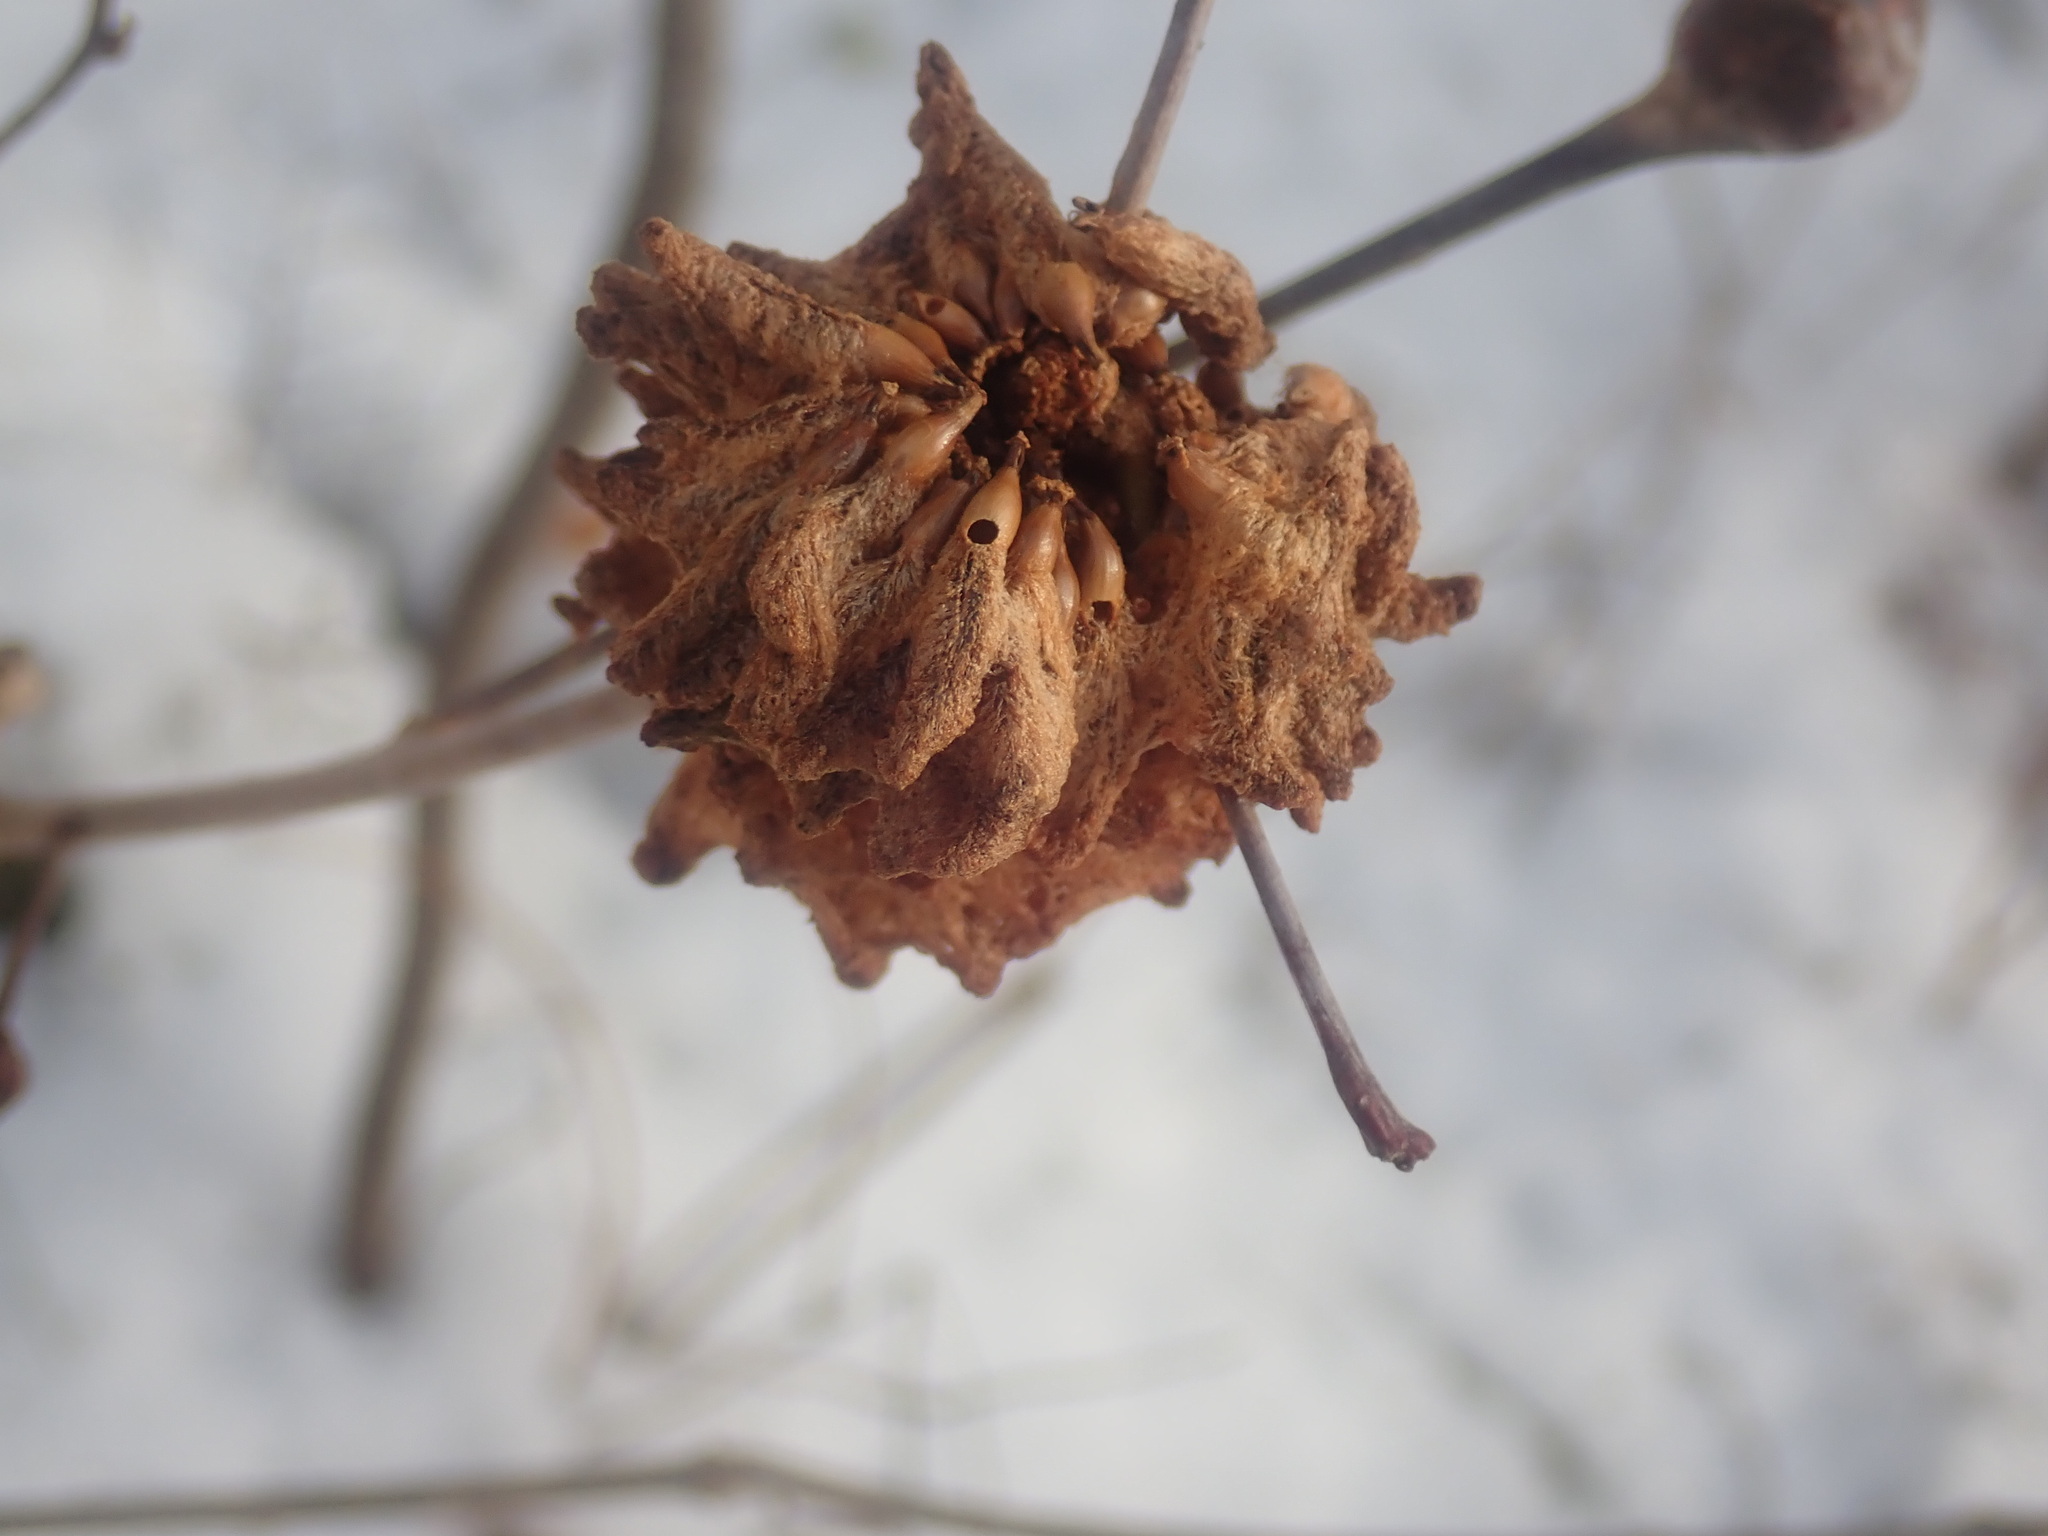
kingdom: Animalia
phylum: Arthropoda
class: Insecta
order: Hymenoptera
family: Cynipidae
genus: Callirhytis
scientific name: Callirhytis
